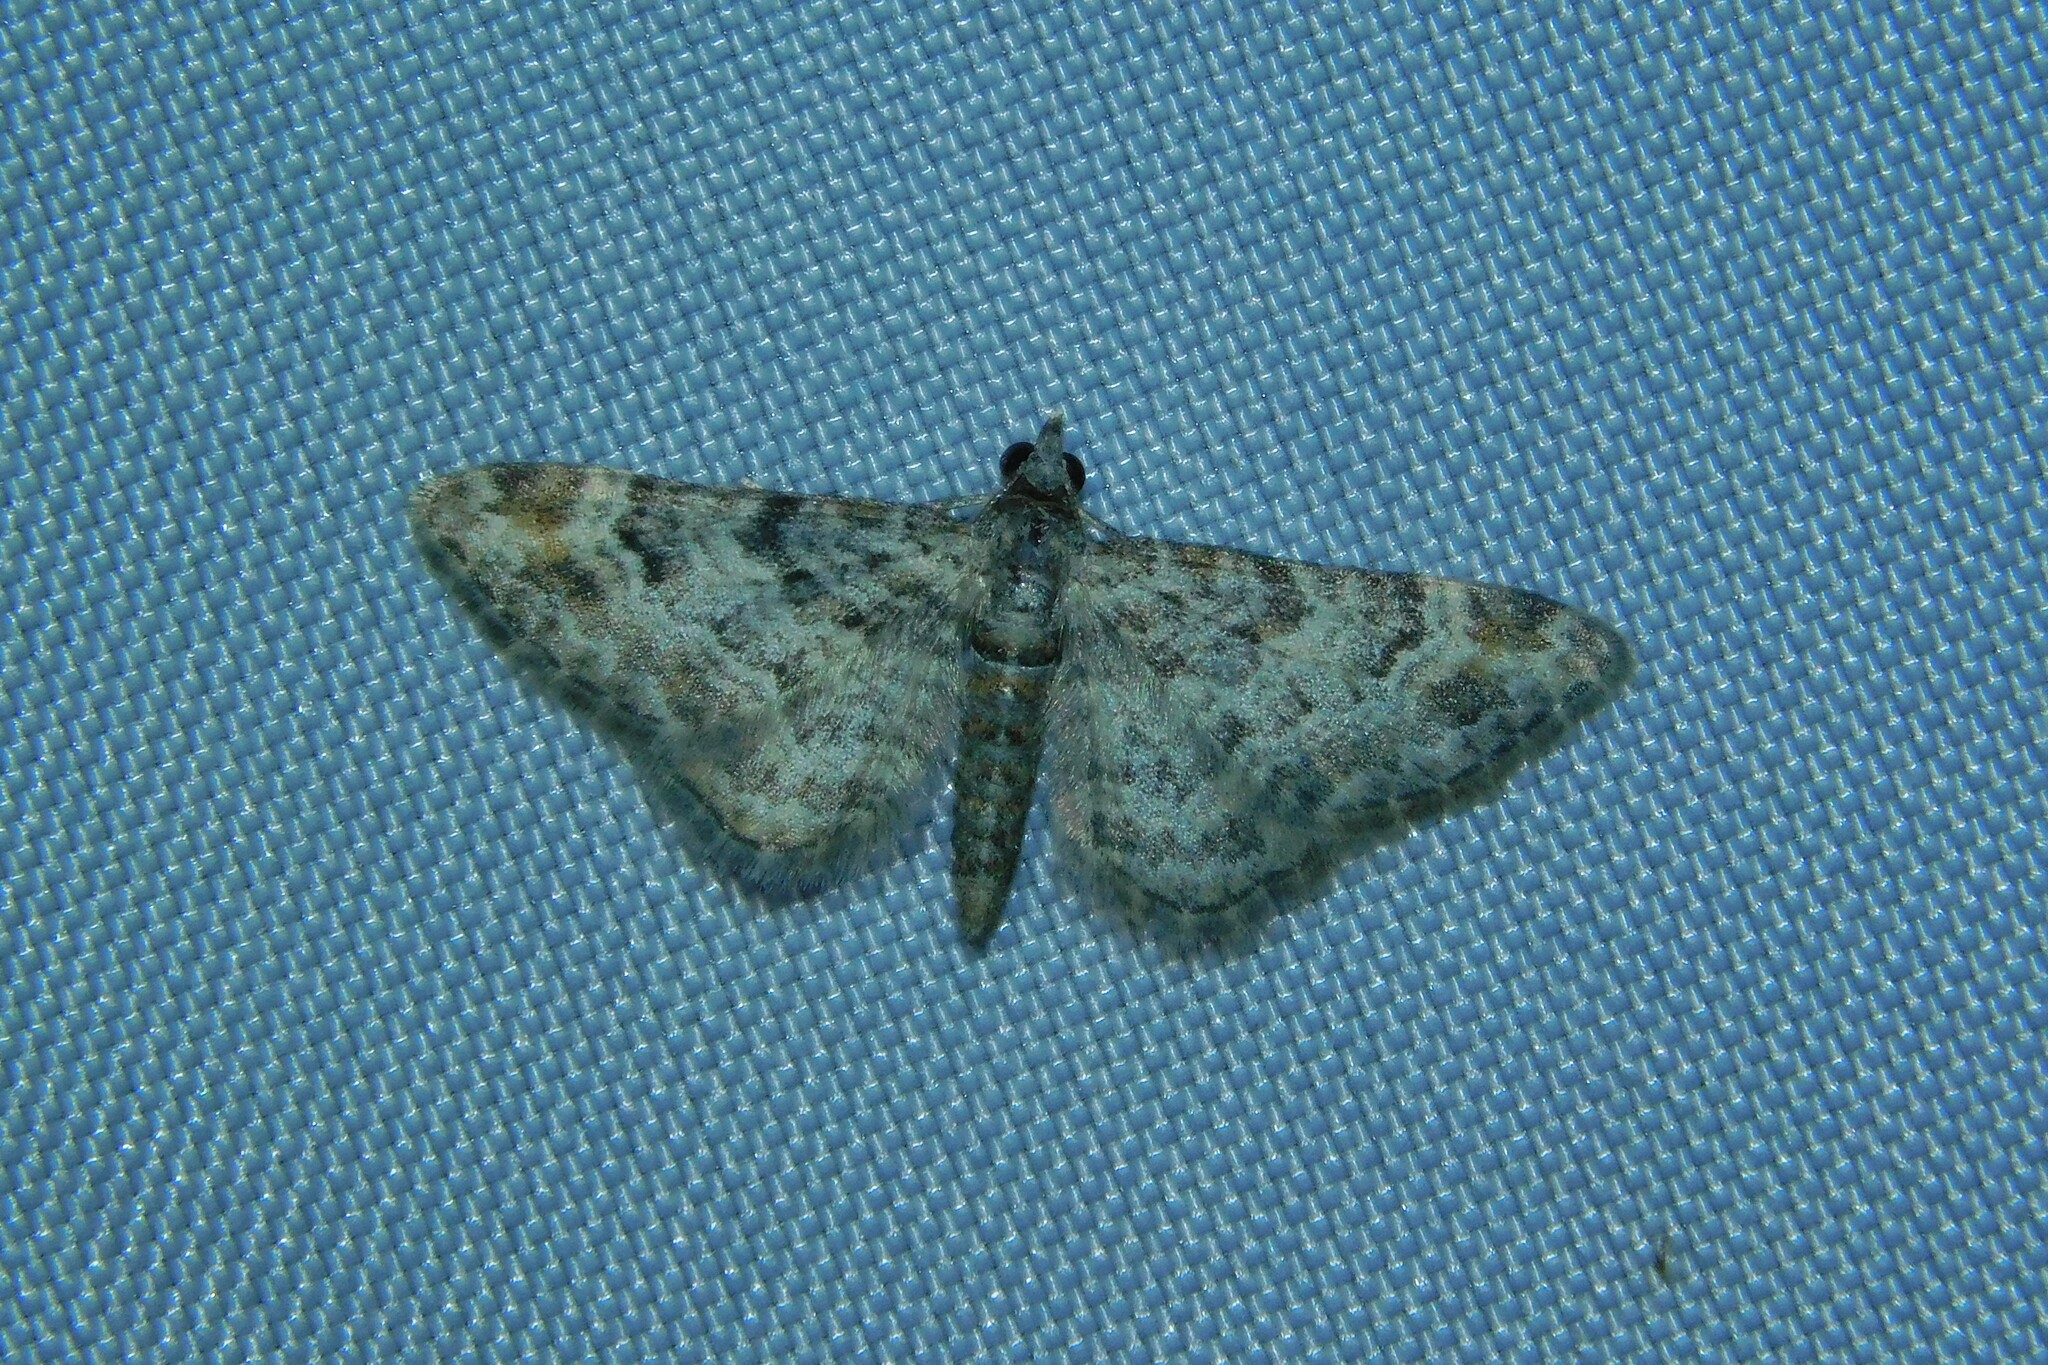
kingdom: Animalia
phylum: Arthropoda
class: Insecta
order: Lepidoptera
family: Geometridae
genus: Gymnoscelis
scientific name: Gymnoscelis rufifasciata
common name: Double-striped pug
